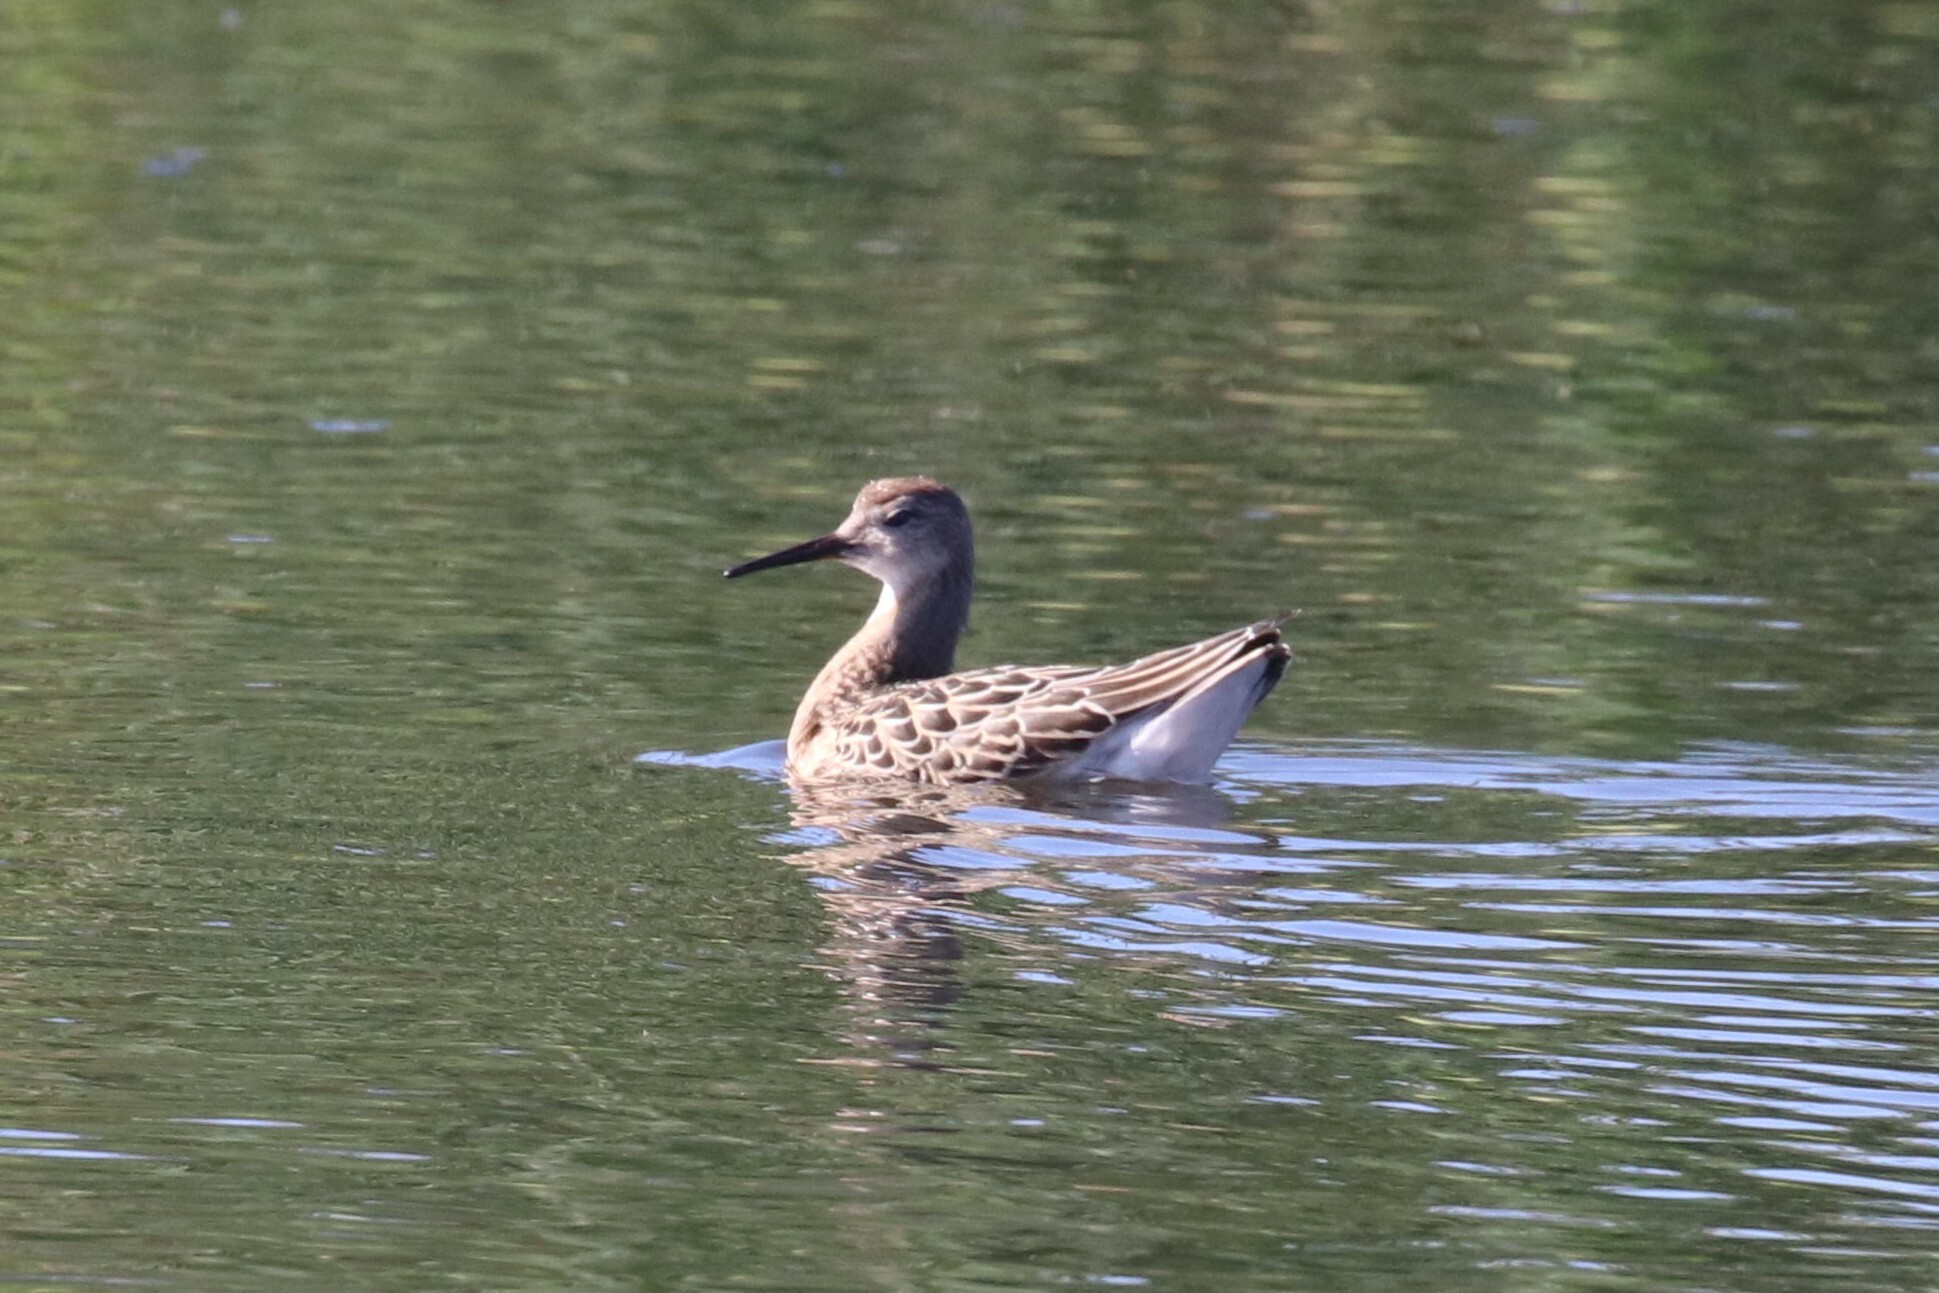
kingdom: Animalia
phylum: Chordata
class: Aves
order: Charadriiformes
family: Scolopacidae
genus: Calidris
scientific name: Calidris pugnax
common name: Ruff
